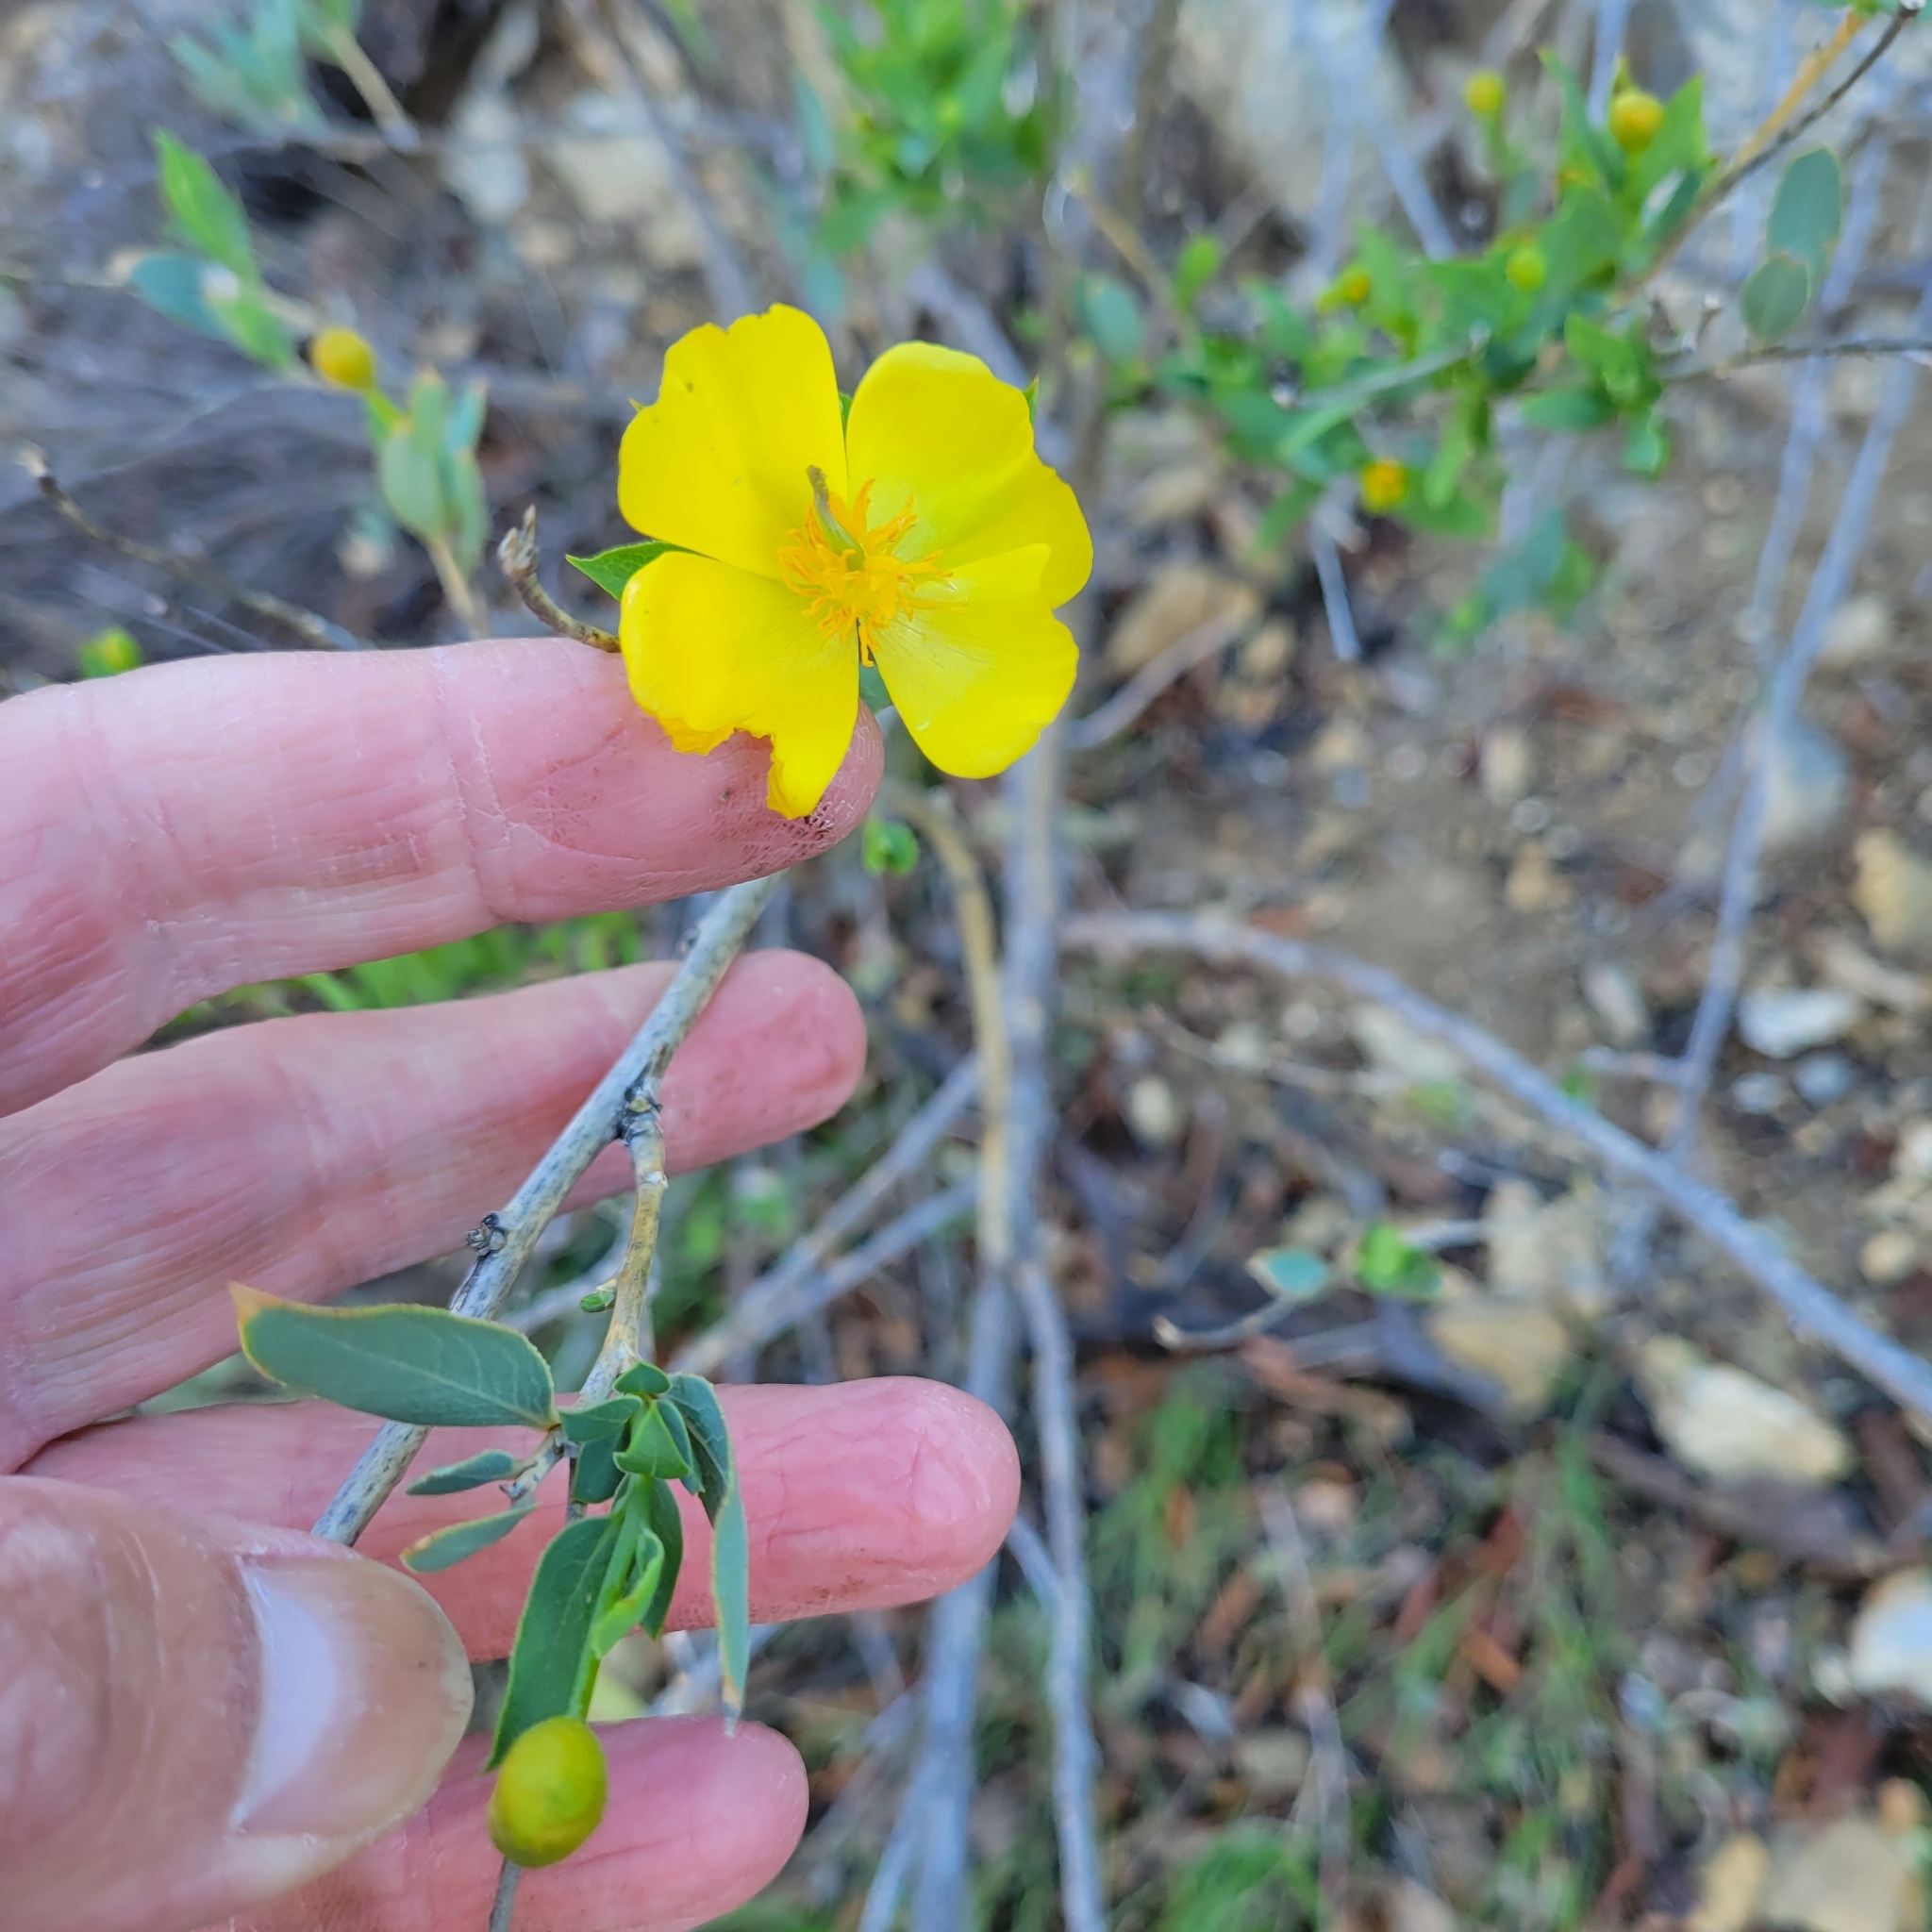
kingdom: Plantae
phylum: Tracheophyta
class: Magnoliopsida
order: Ranunculales
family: Papaveraceae
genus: Dendromecon
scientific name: Dendromecon rigida
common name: Tree poppy
